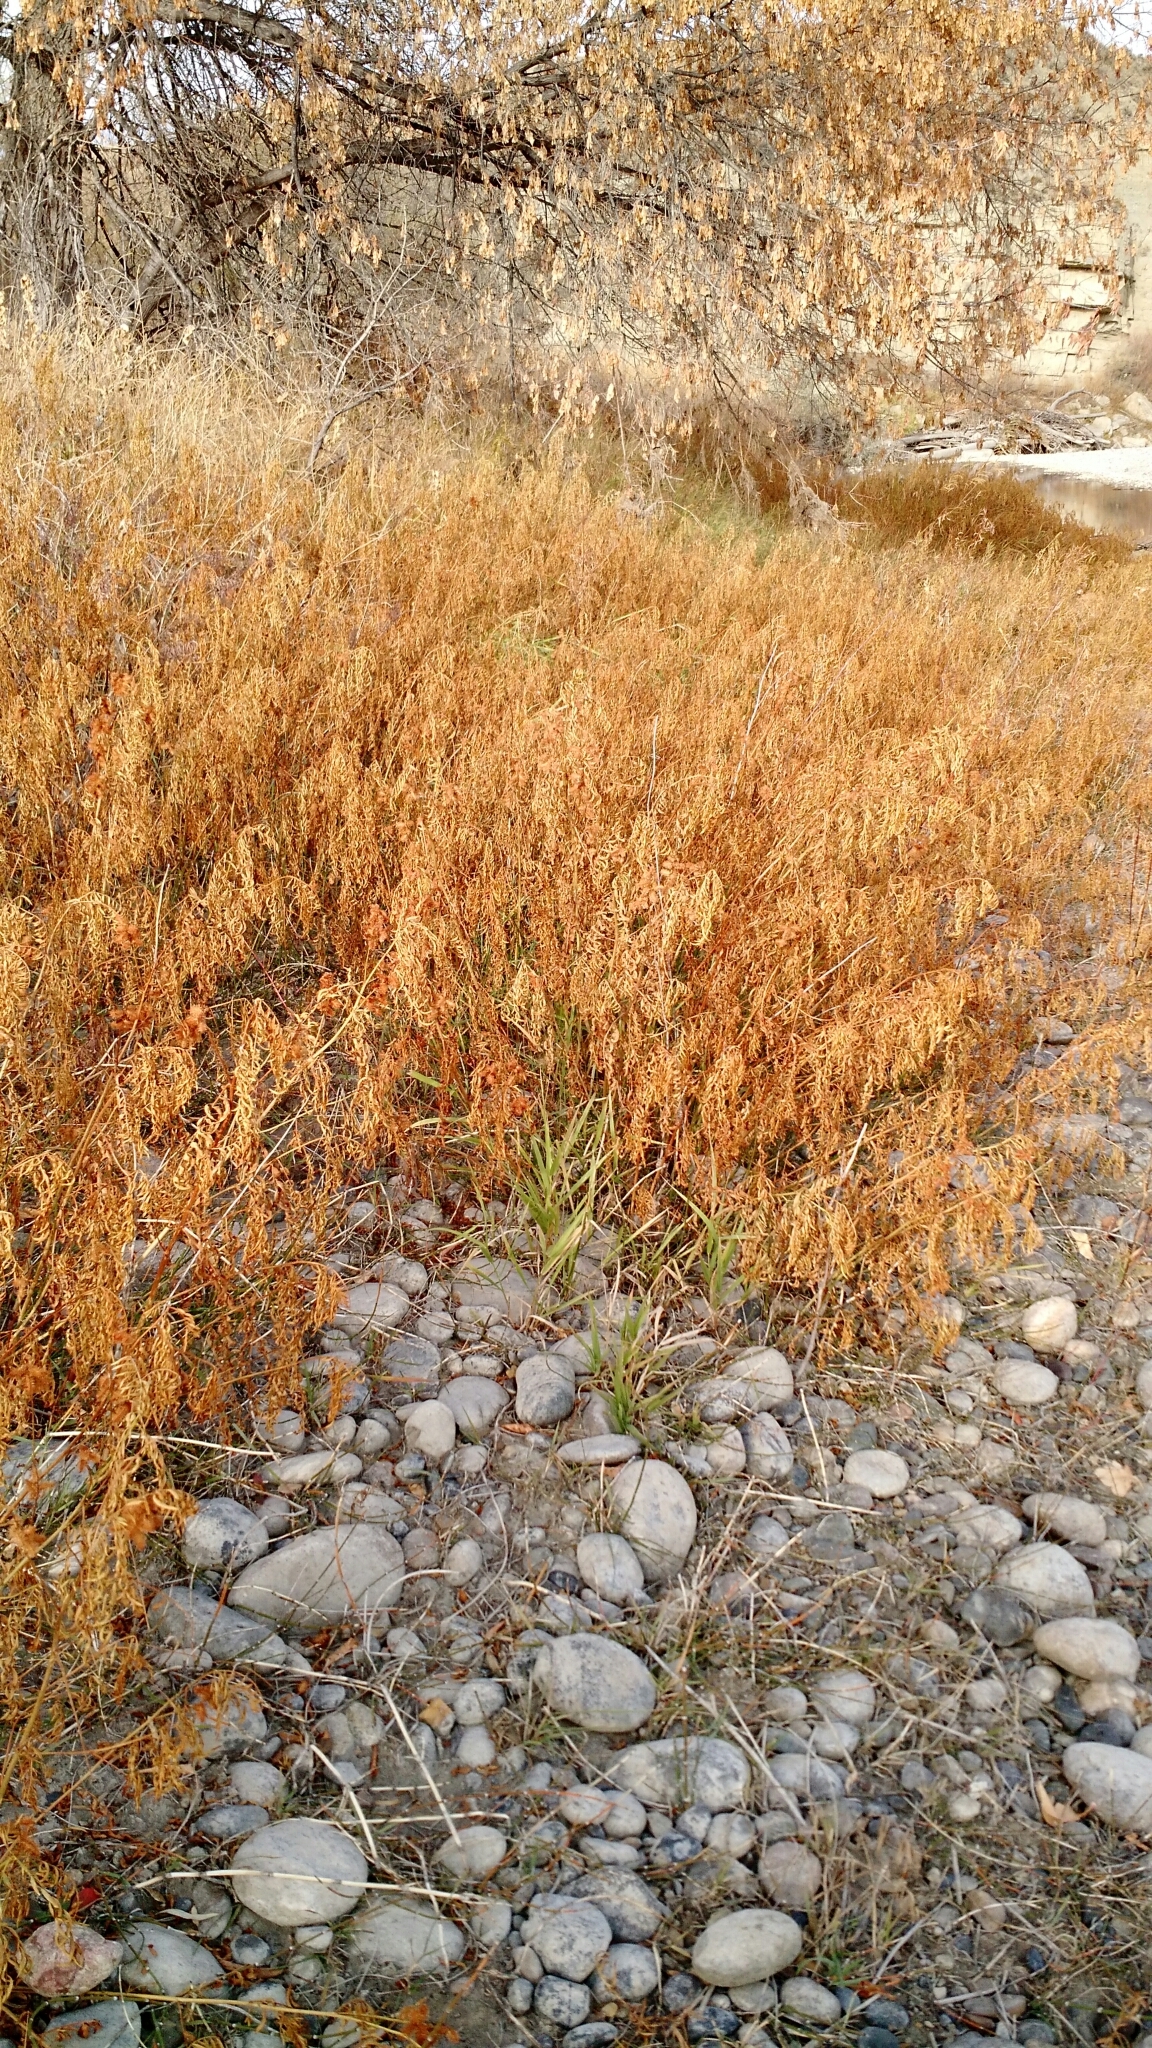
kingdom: Plantae
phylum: Tracheophyta
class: Magnoliopsida
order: Fabales
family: Fabaceae
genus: Glycyrrhiza
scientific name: Glycyrrhiza lepidota
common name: American liquorice
